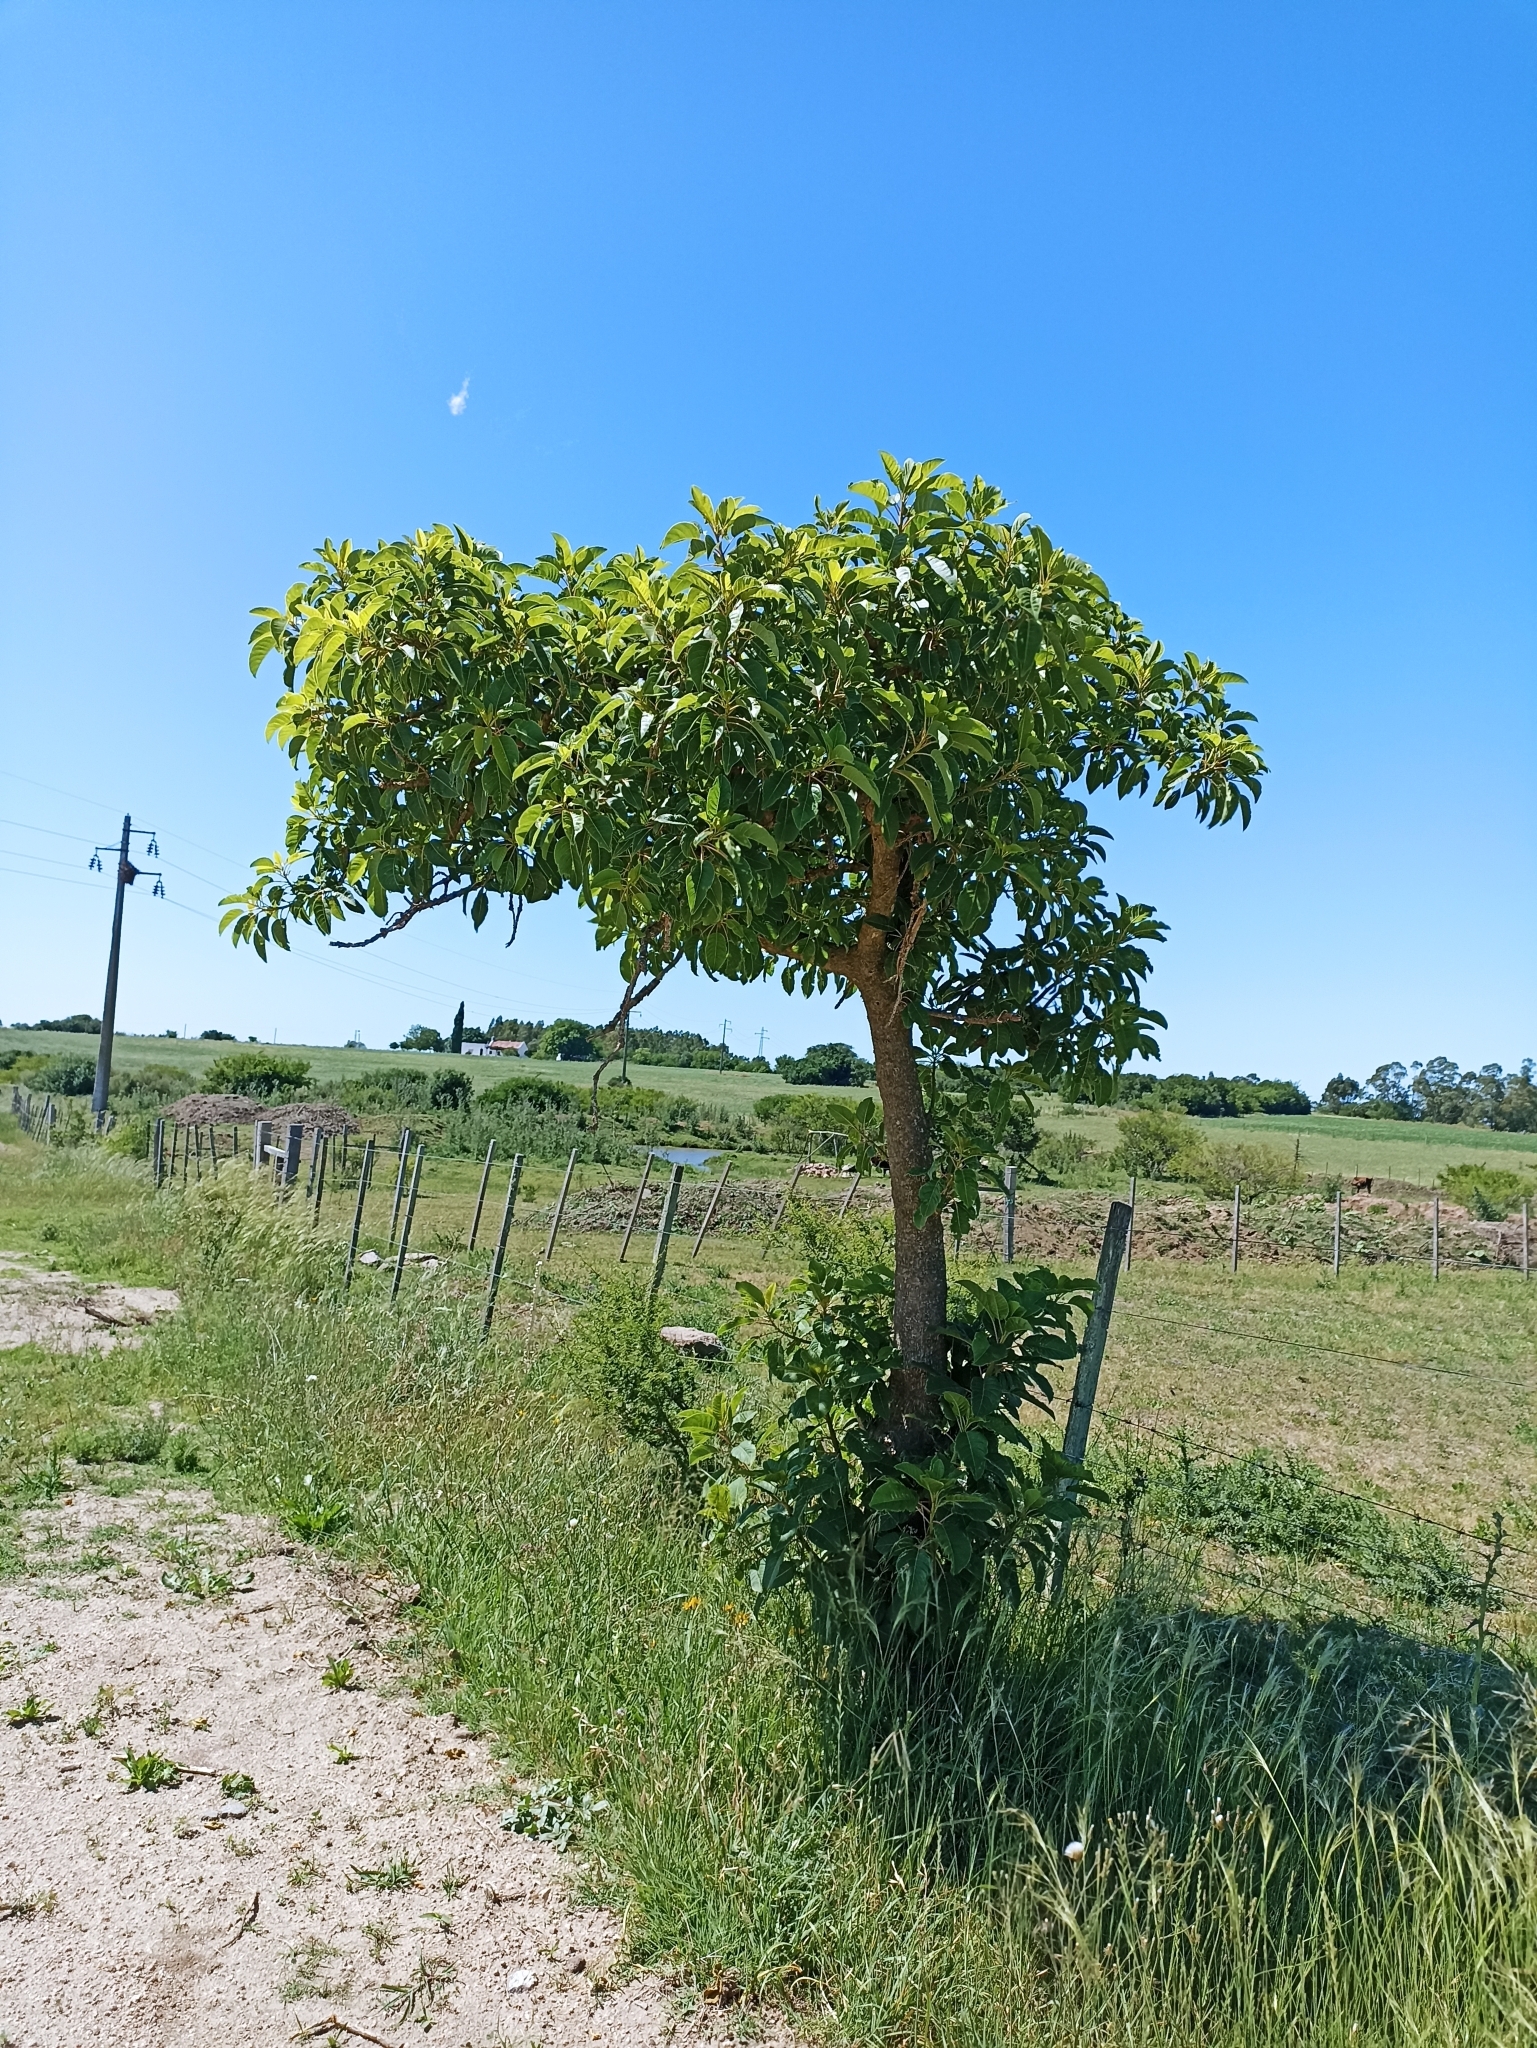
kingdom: Plantae
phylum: Tracheophyta
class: Magnoliopsida
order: Caryophyllales
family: Phytolaccaceae
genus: Phytolacca
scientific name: Phytolacca dioica
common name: Pokeweed
